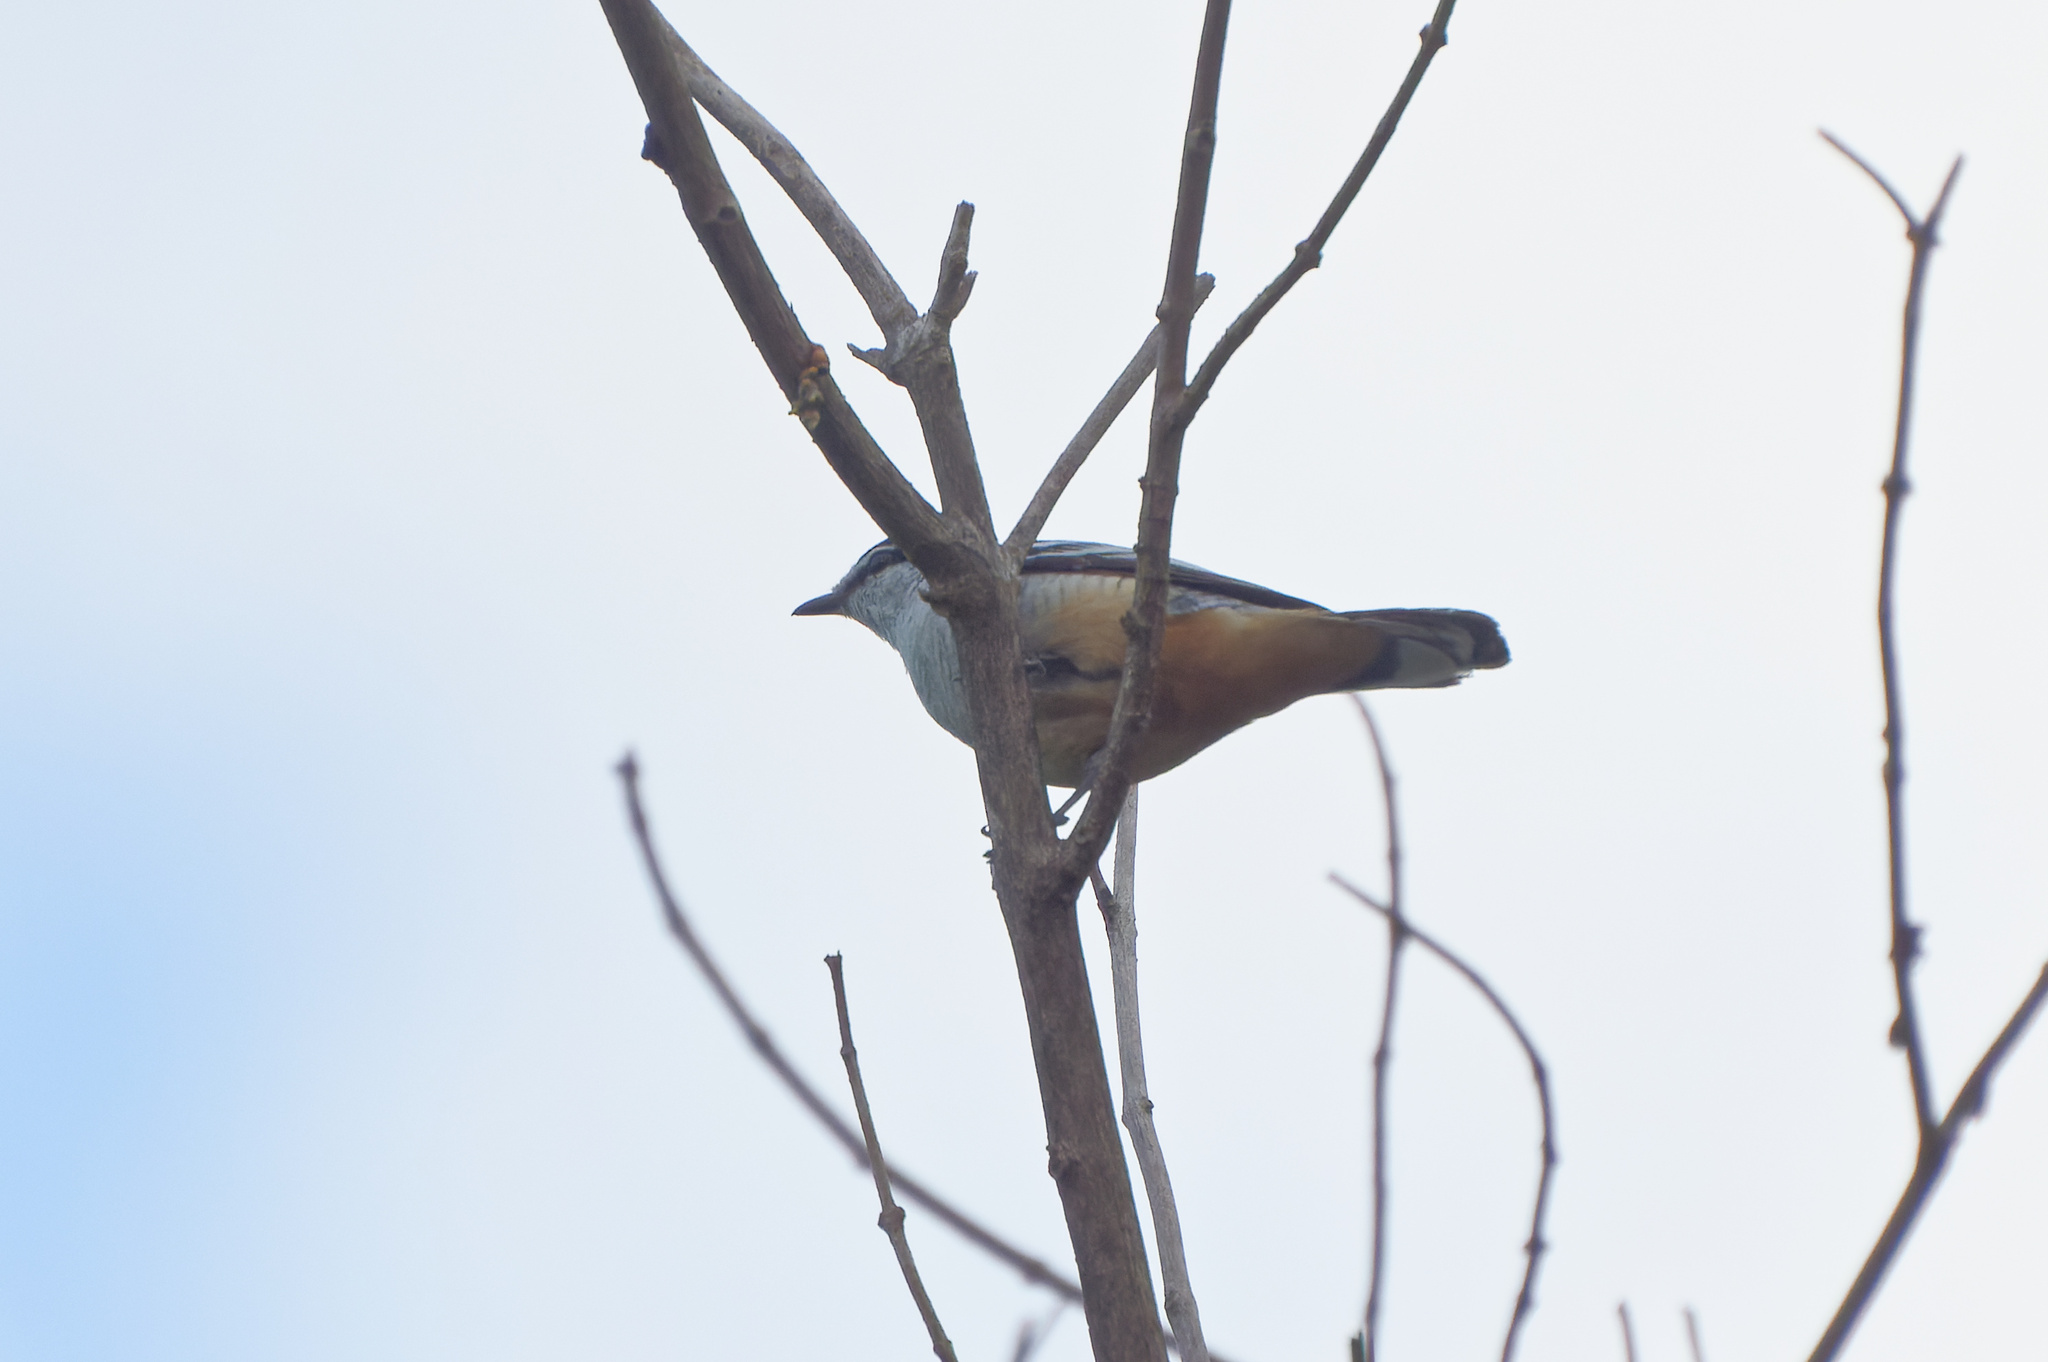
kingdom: Animalia
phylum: Chordata
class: Aves
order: Passeriformes
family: Campephagidae
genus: Lalage
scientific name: Lalage leucomela
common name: Varied triller
